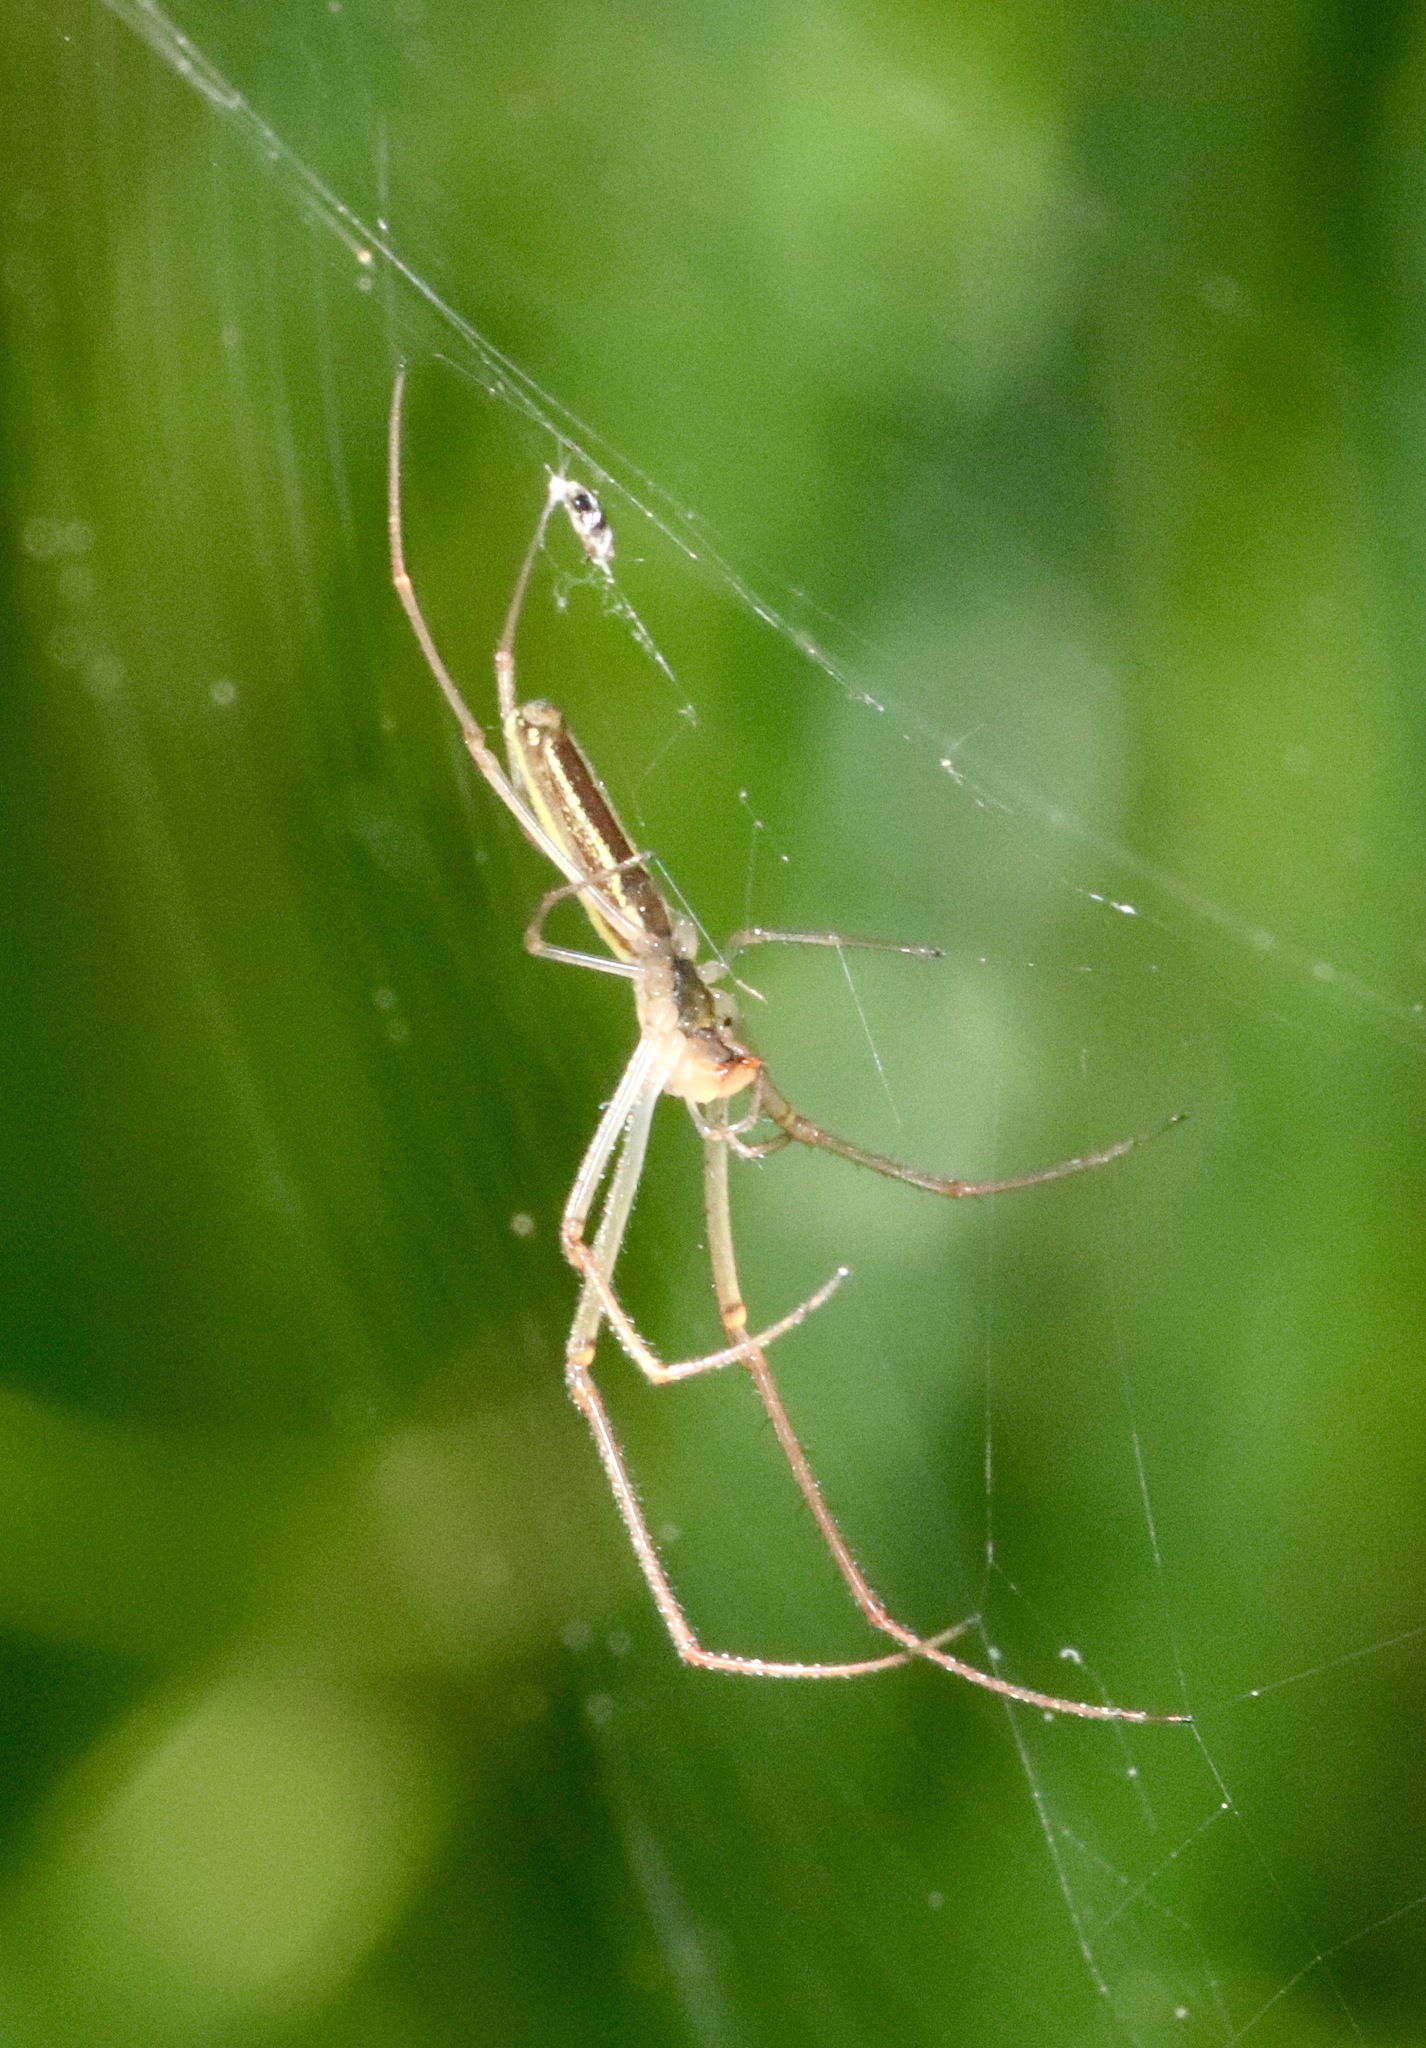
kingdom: Animalia
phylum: Arthropoda
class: Arachnida
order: Araneae
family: Tetragnathidae
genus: Tetragnatha
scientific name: Tetragnatha
